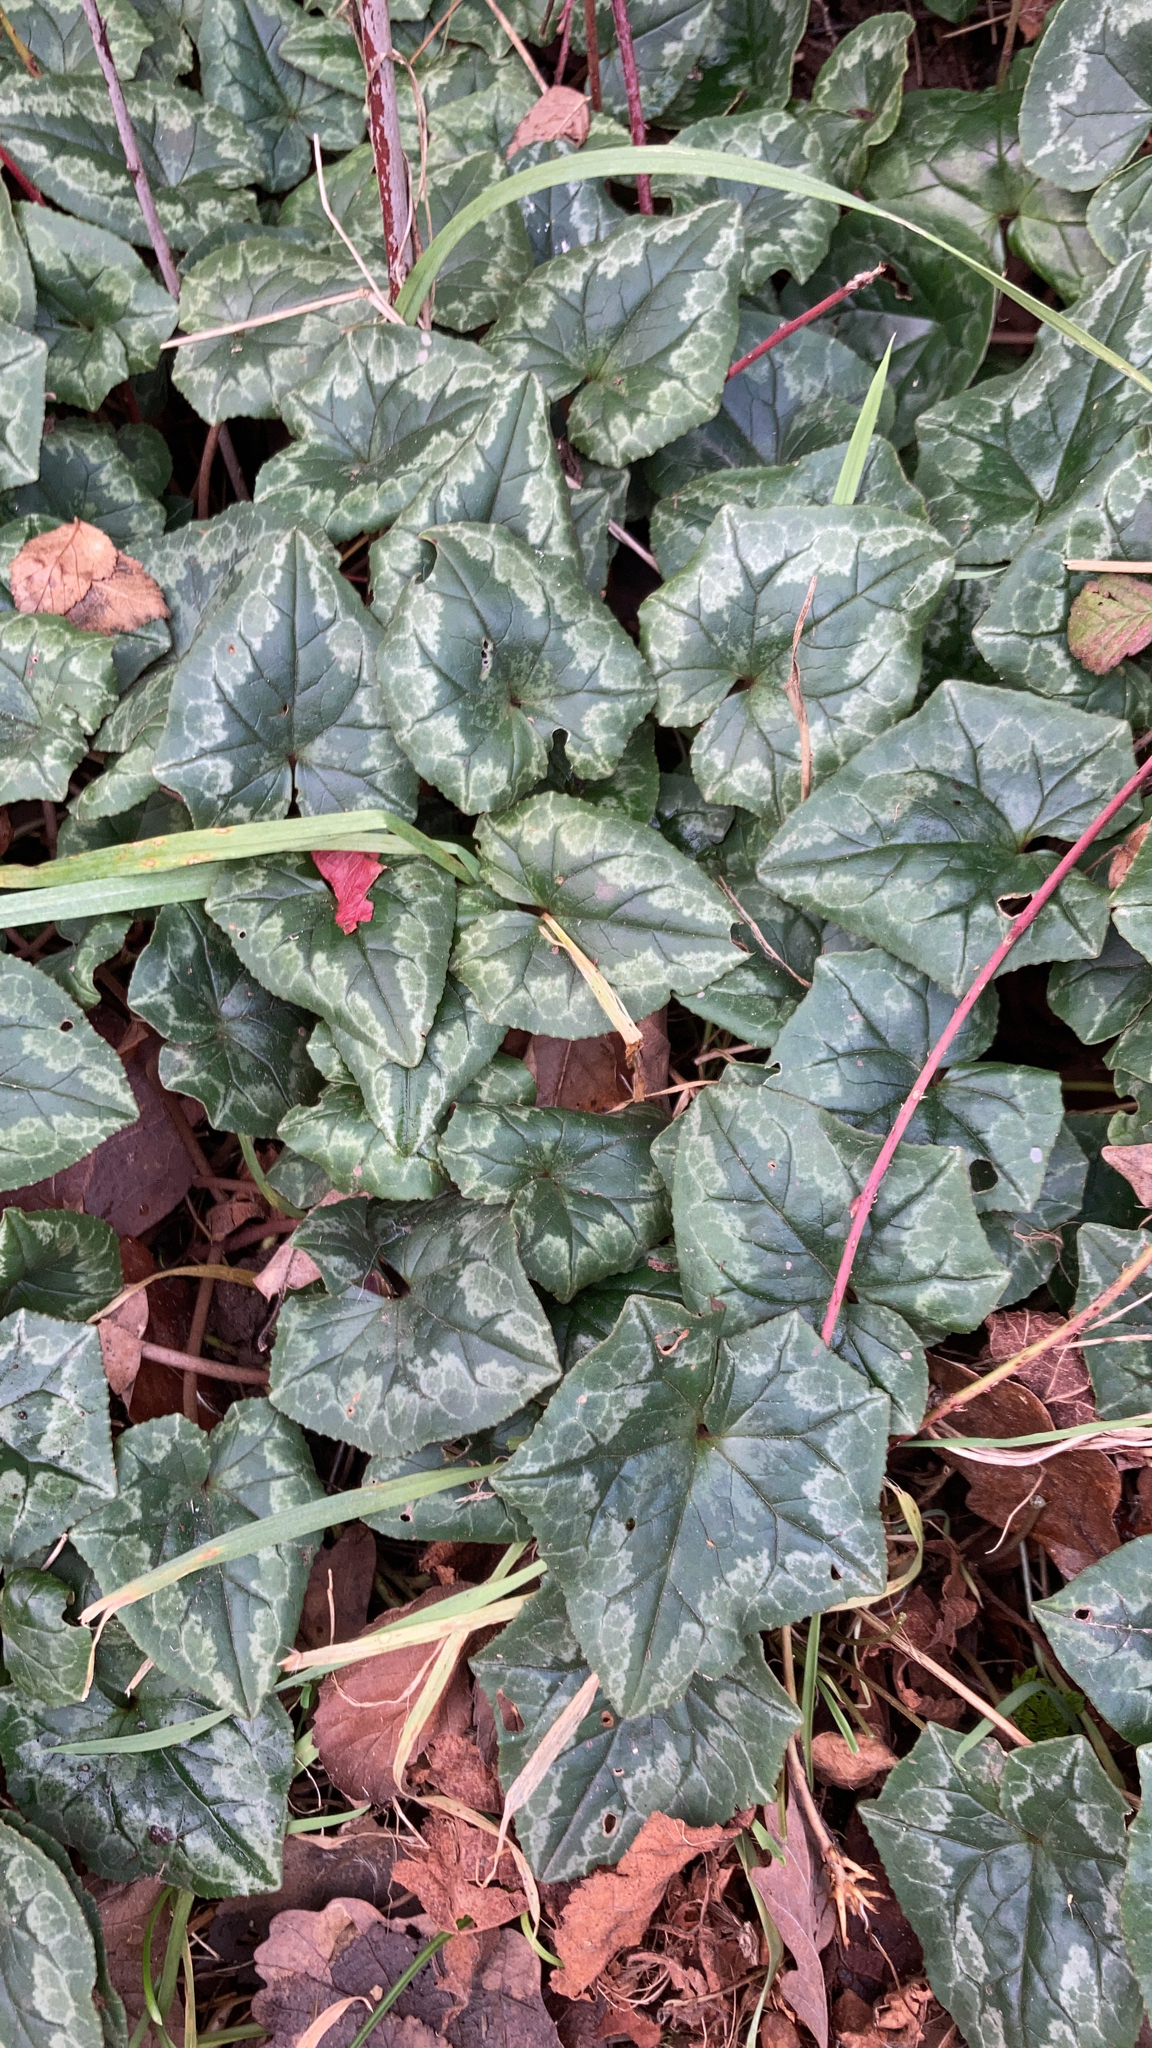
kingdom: Plantae
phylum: Tracheophyta
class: Magnoliopsida
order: Ericales
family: Primulaceae
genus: Cyclamen
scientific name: Cyclamen hederifolium
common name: Sowbread
